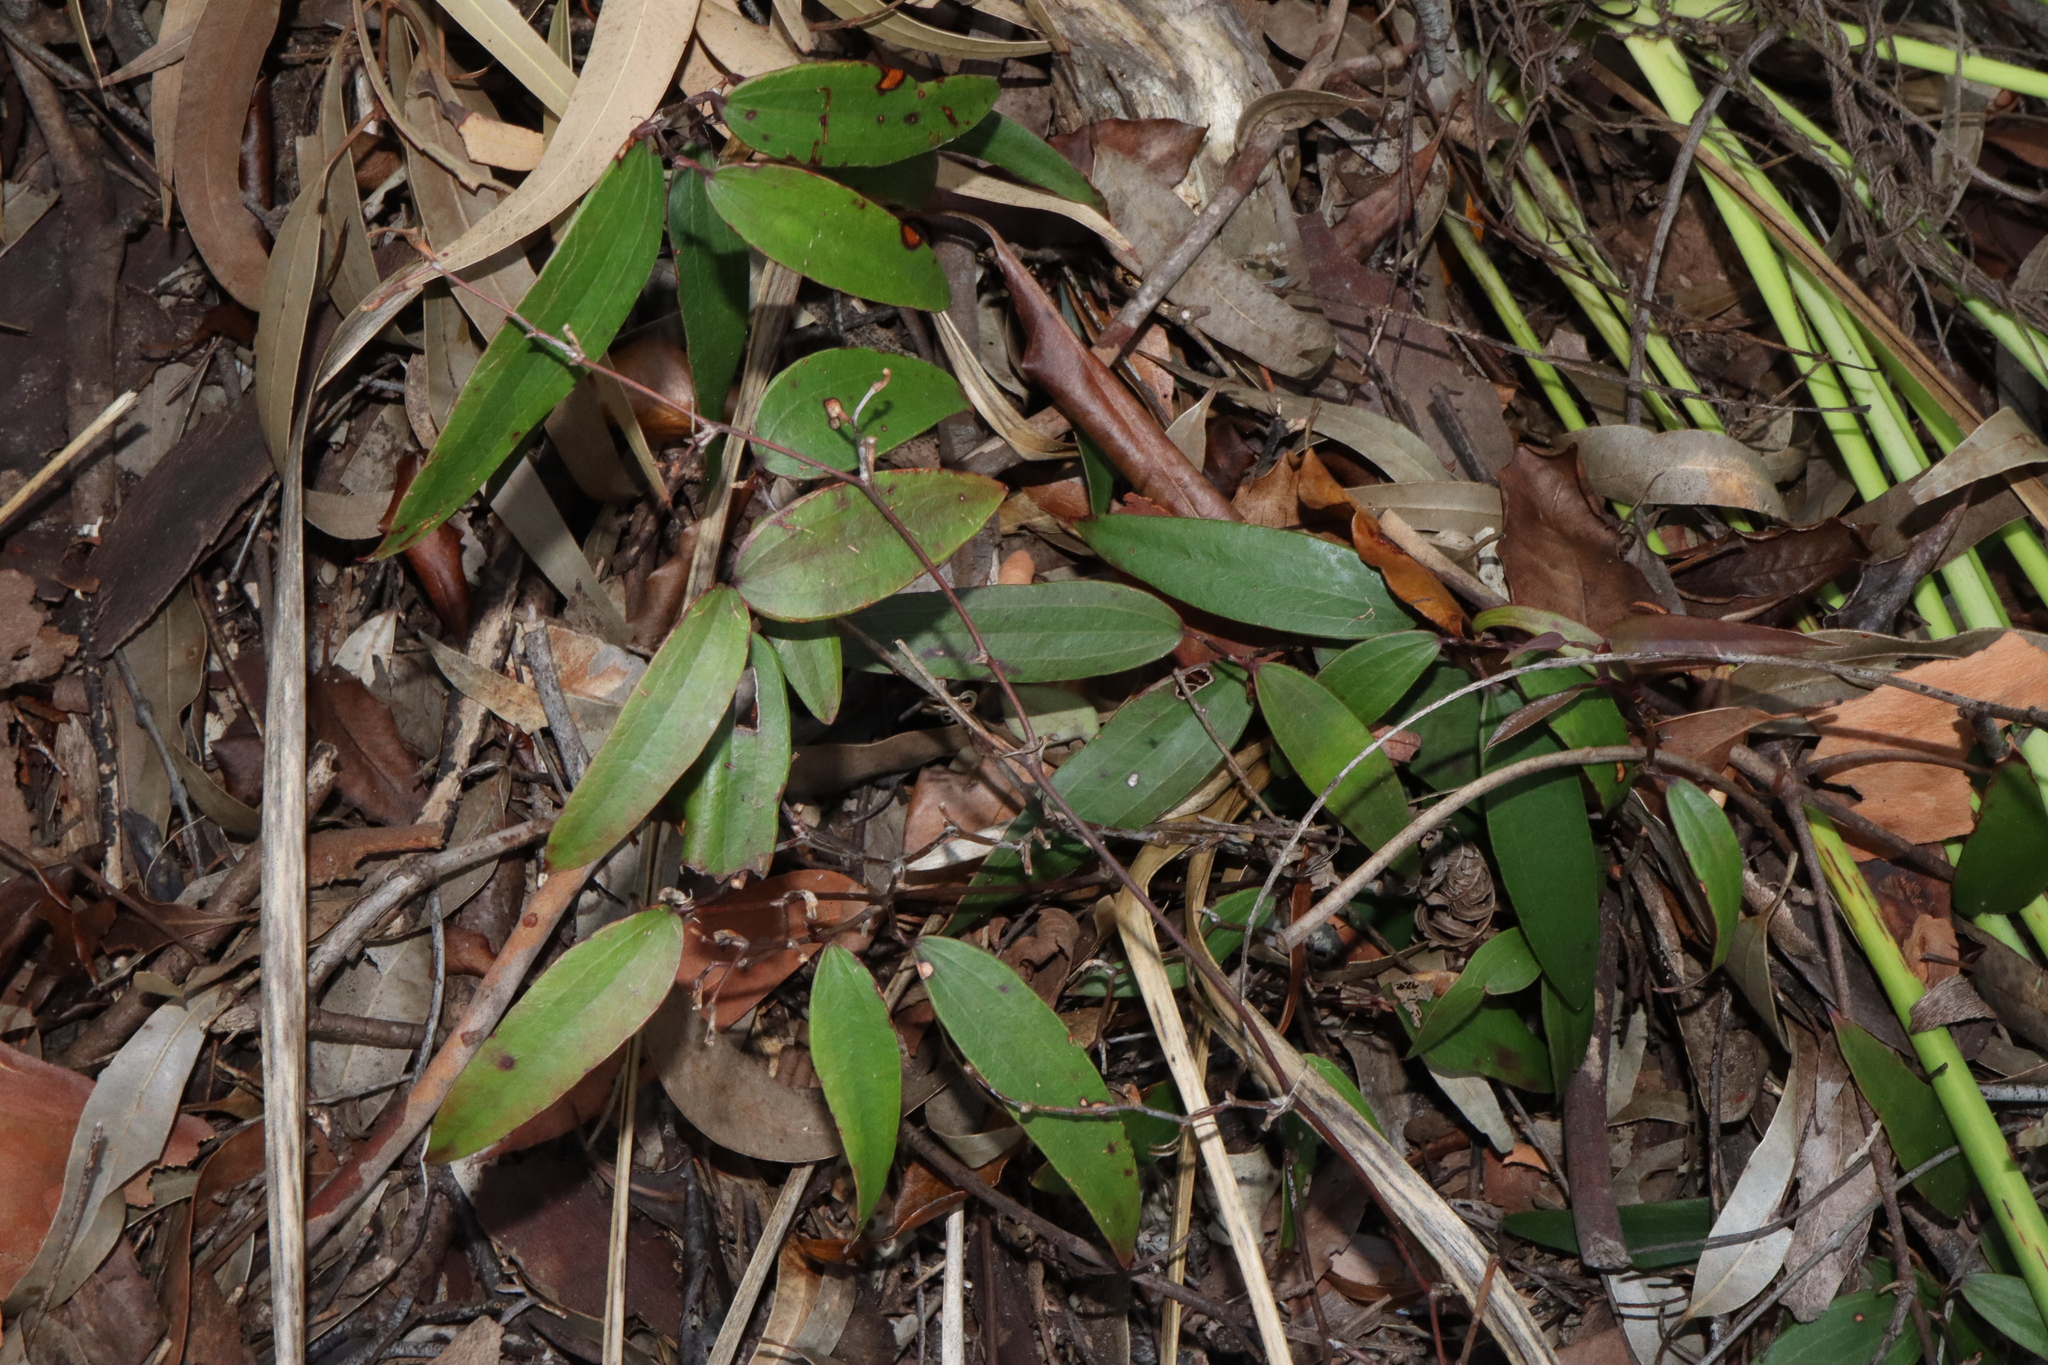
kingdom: Plantae
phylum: Tracheophyta
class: Liliopsida
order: Liliales
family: Smilacaceae
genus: Smilax
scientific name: Smilax glyciphylla
